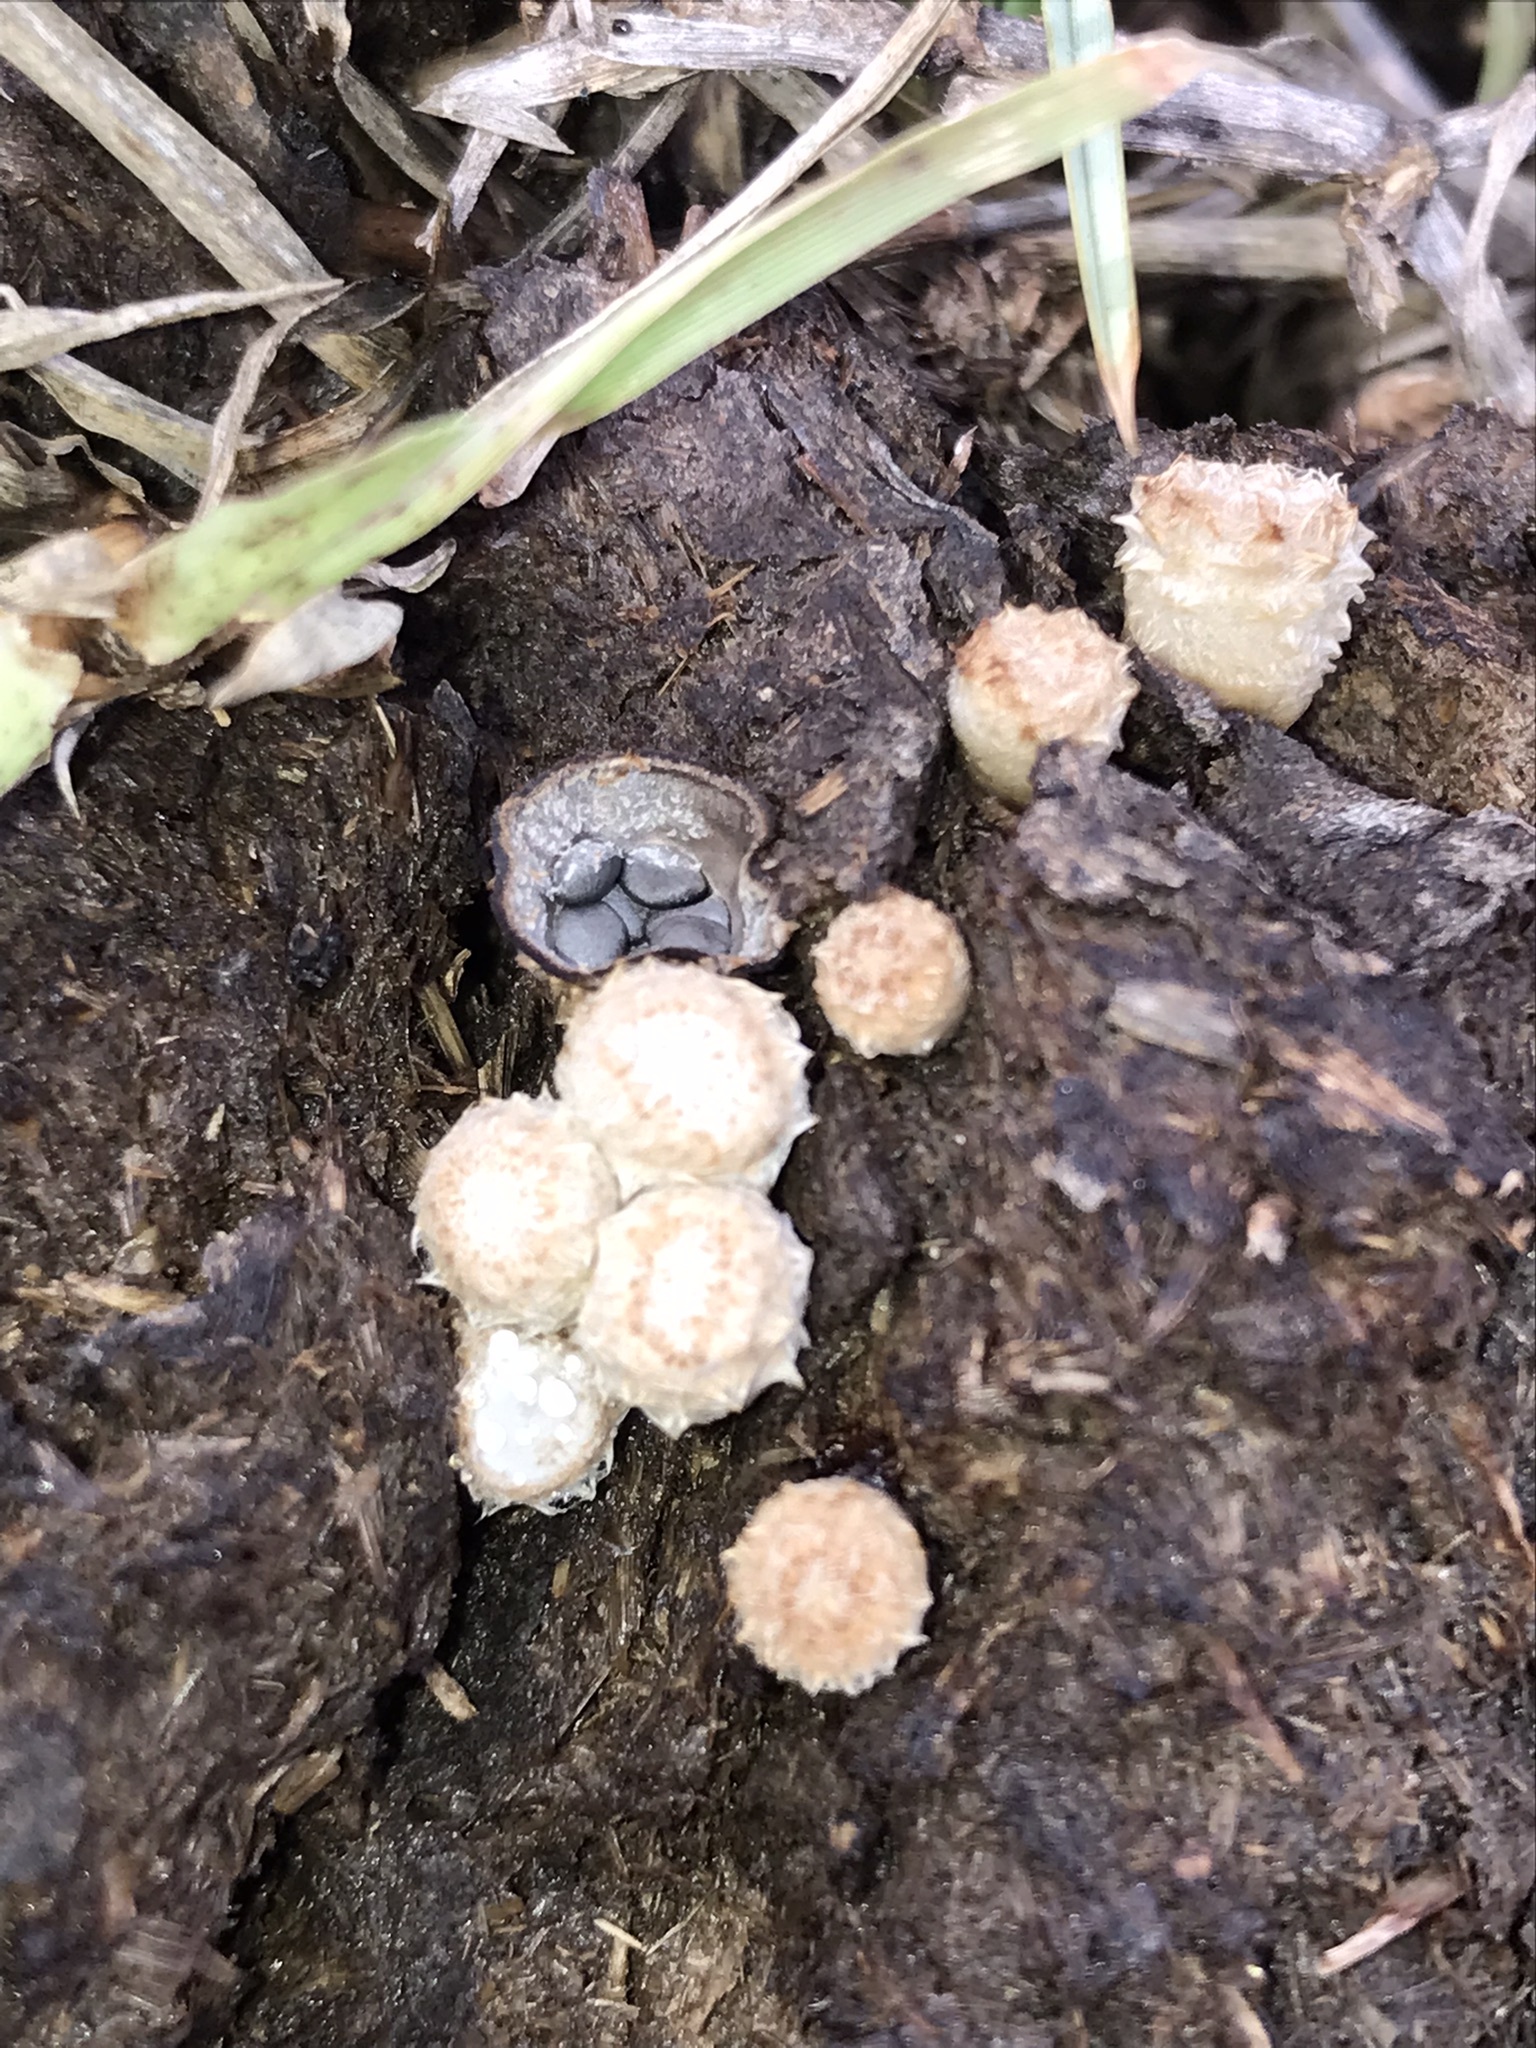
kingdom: Fungi
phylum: Basidiomycota
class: Agaricomycetes
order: Agaricales
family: Agaricaceae
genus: Cyathus
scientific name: Cyathus stercoreus
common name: Dung bird's nest
